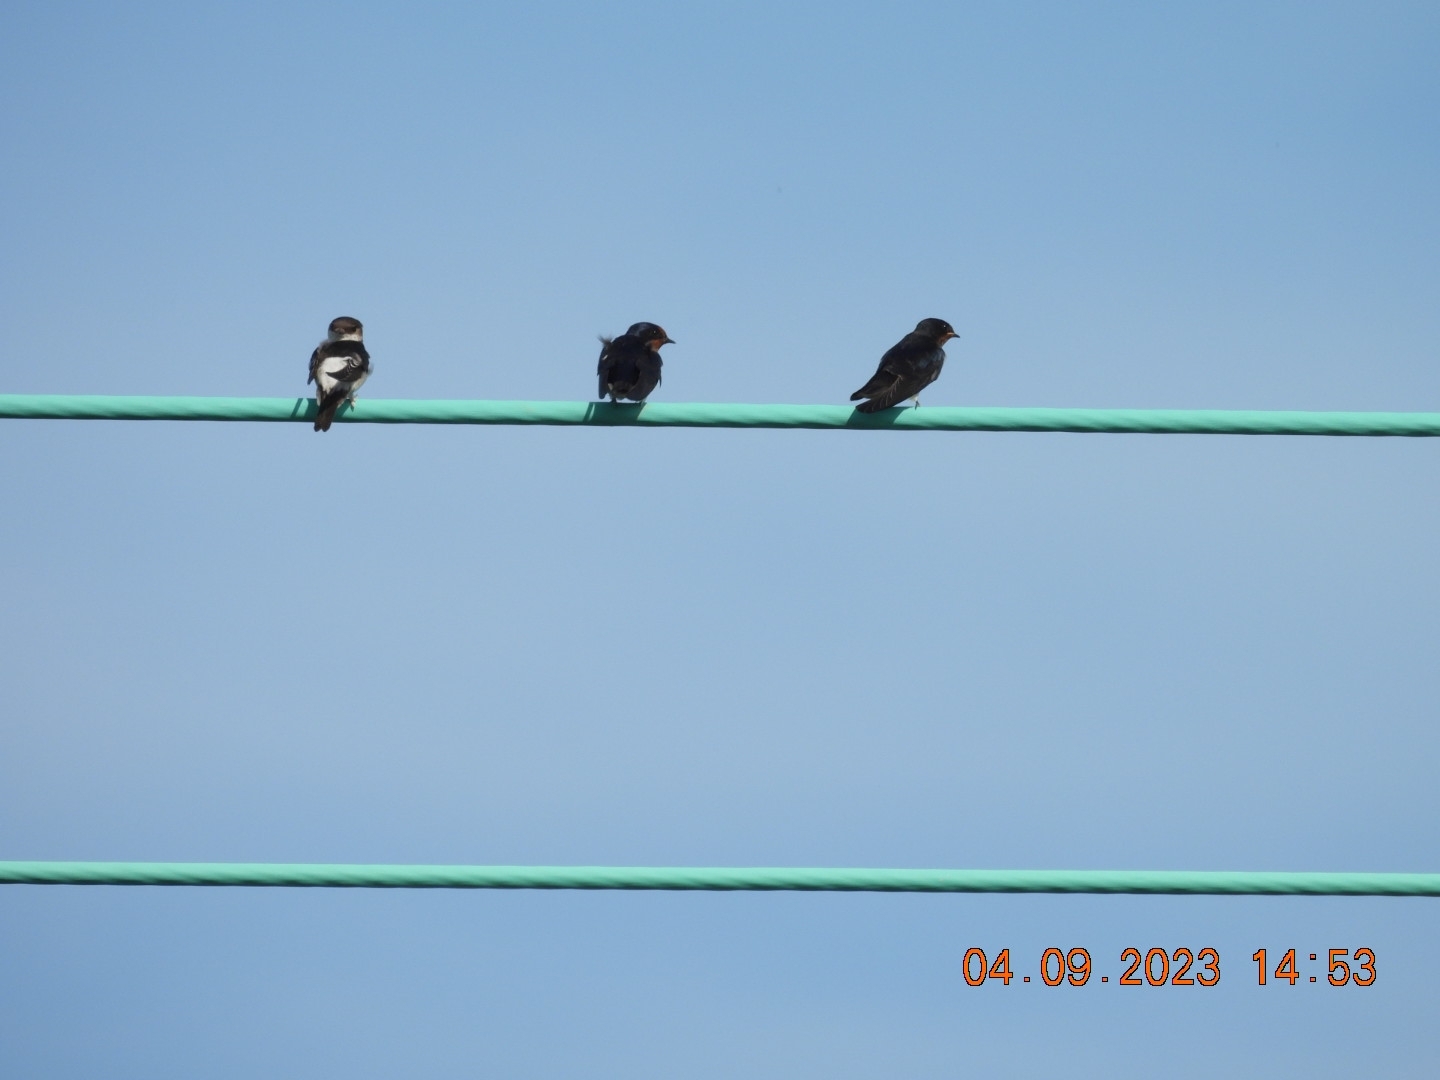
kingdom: Animalia
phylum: Chordata
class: Aves
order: Passeriformes
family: Hirundinidae
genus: Delichon
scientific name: Delichon urbicum
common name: Common house martin
